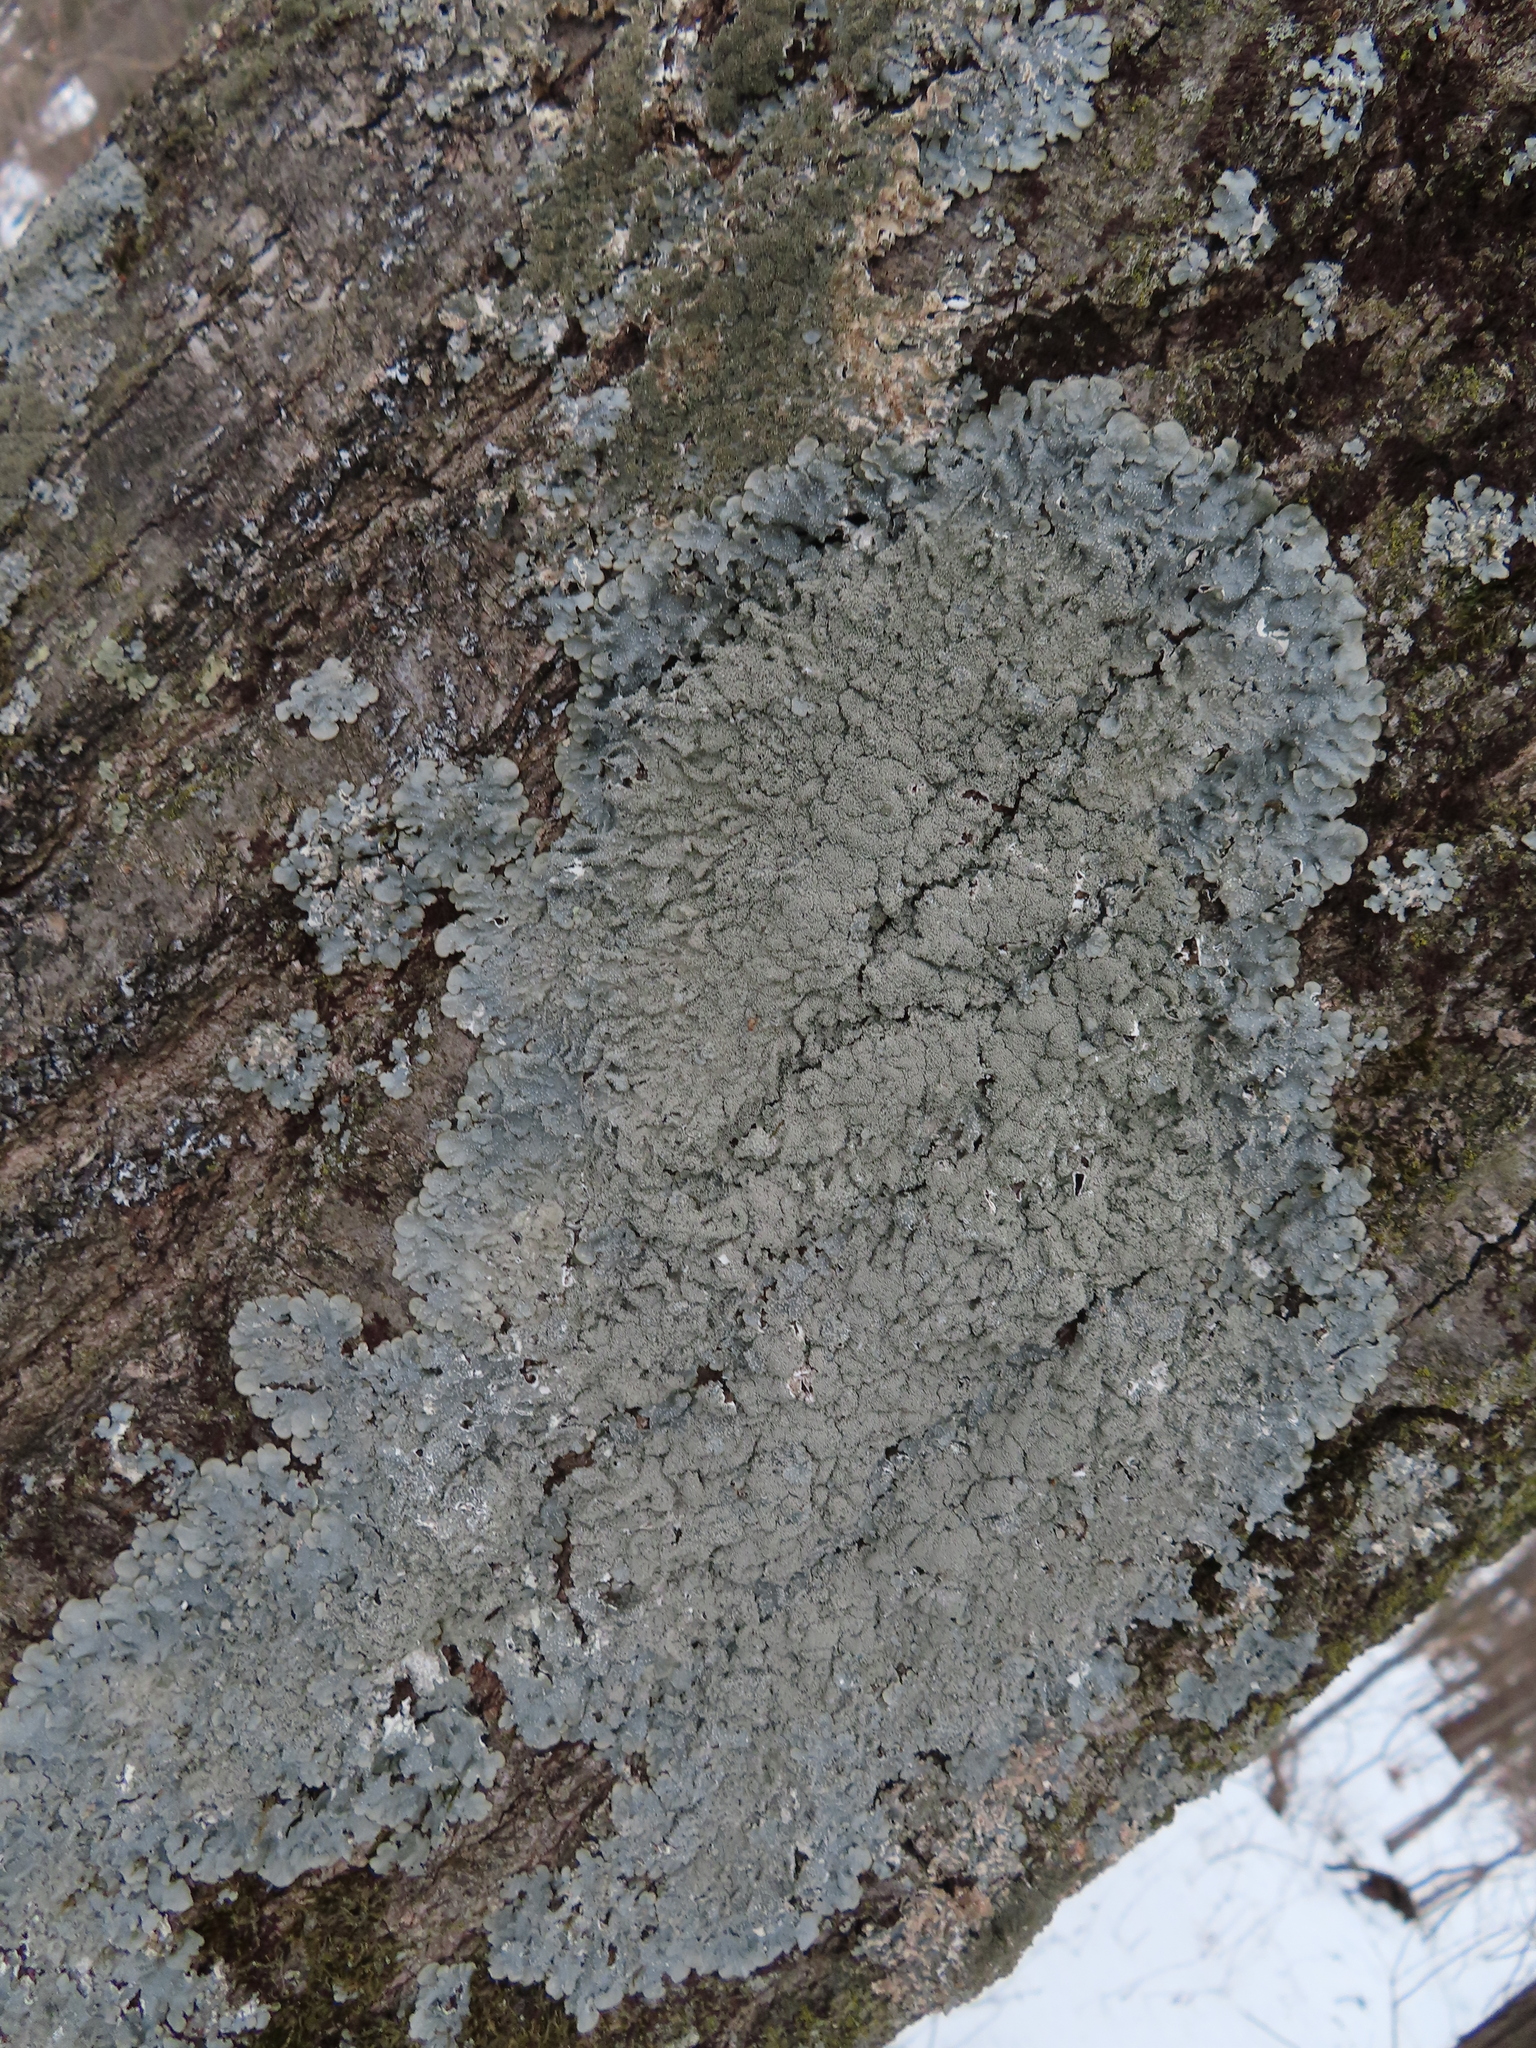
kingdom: Fungi
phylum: Ascomycota
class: Lecanoromycetes
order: Lecanorales
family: Parmeliaceae
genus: Punctelia
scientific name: Punctelia missouriensis
